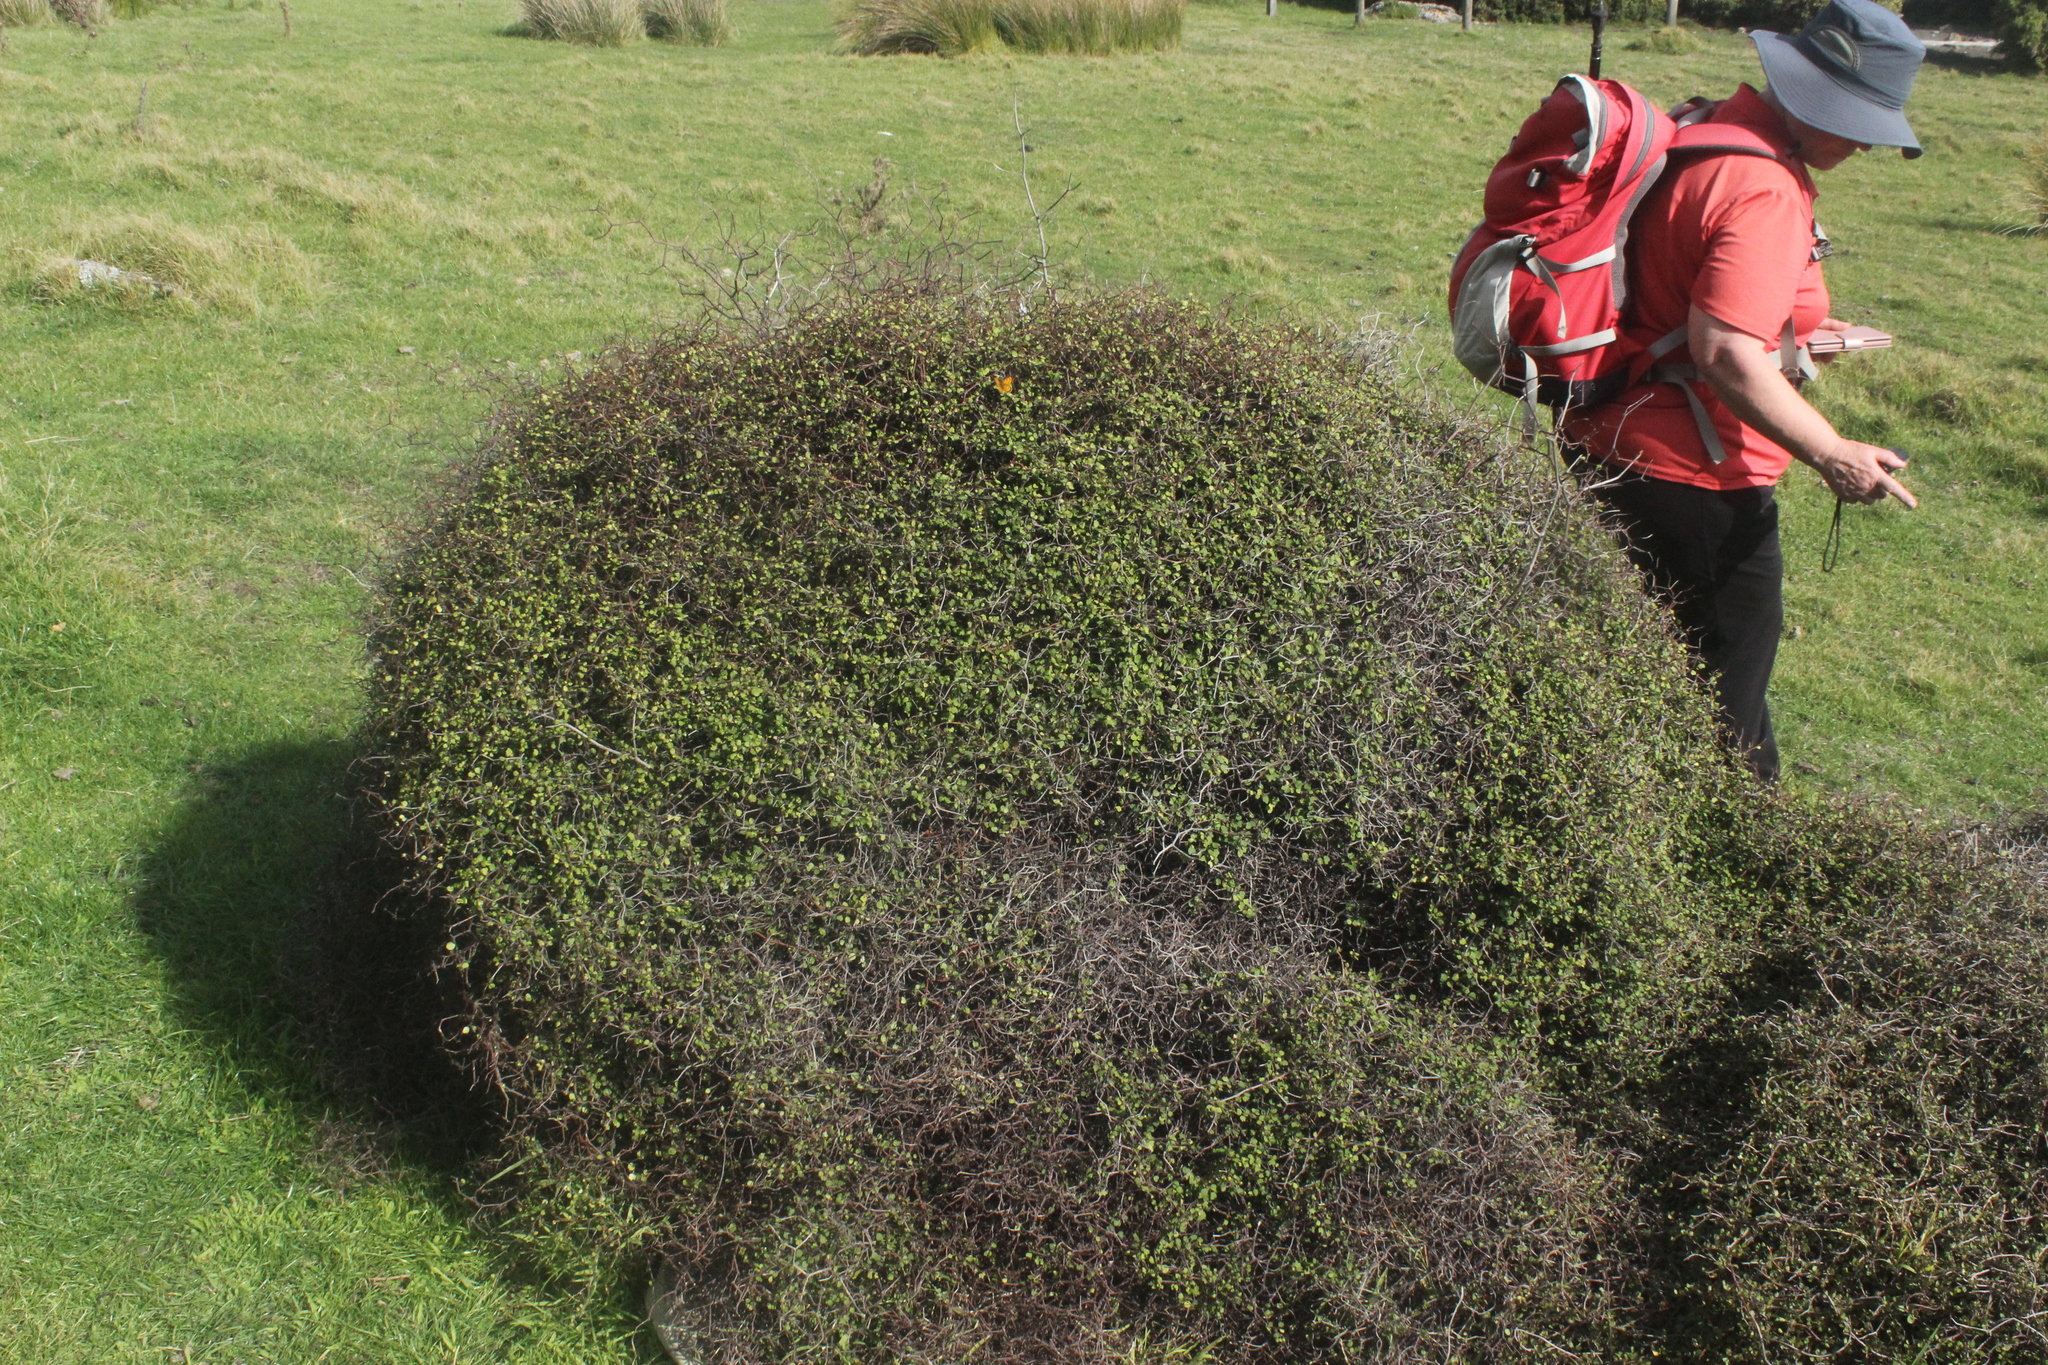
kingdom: Plantae
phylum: Tracheophyta
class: Magnoliopsida
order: Caryophyllales
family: Polygonaceae
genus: Muehlenbeckia
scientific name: Muehlenbeckia astonii
